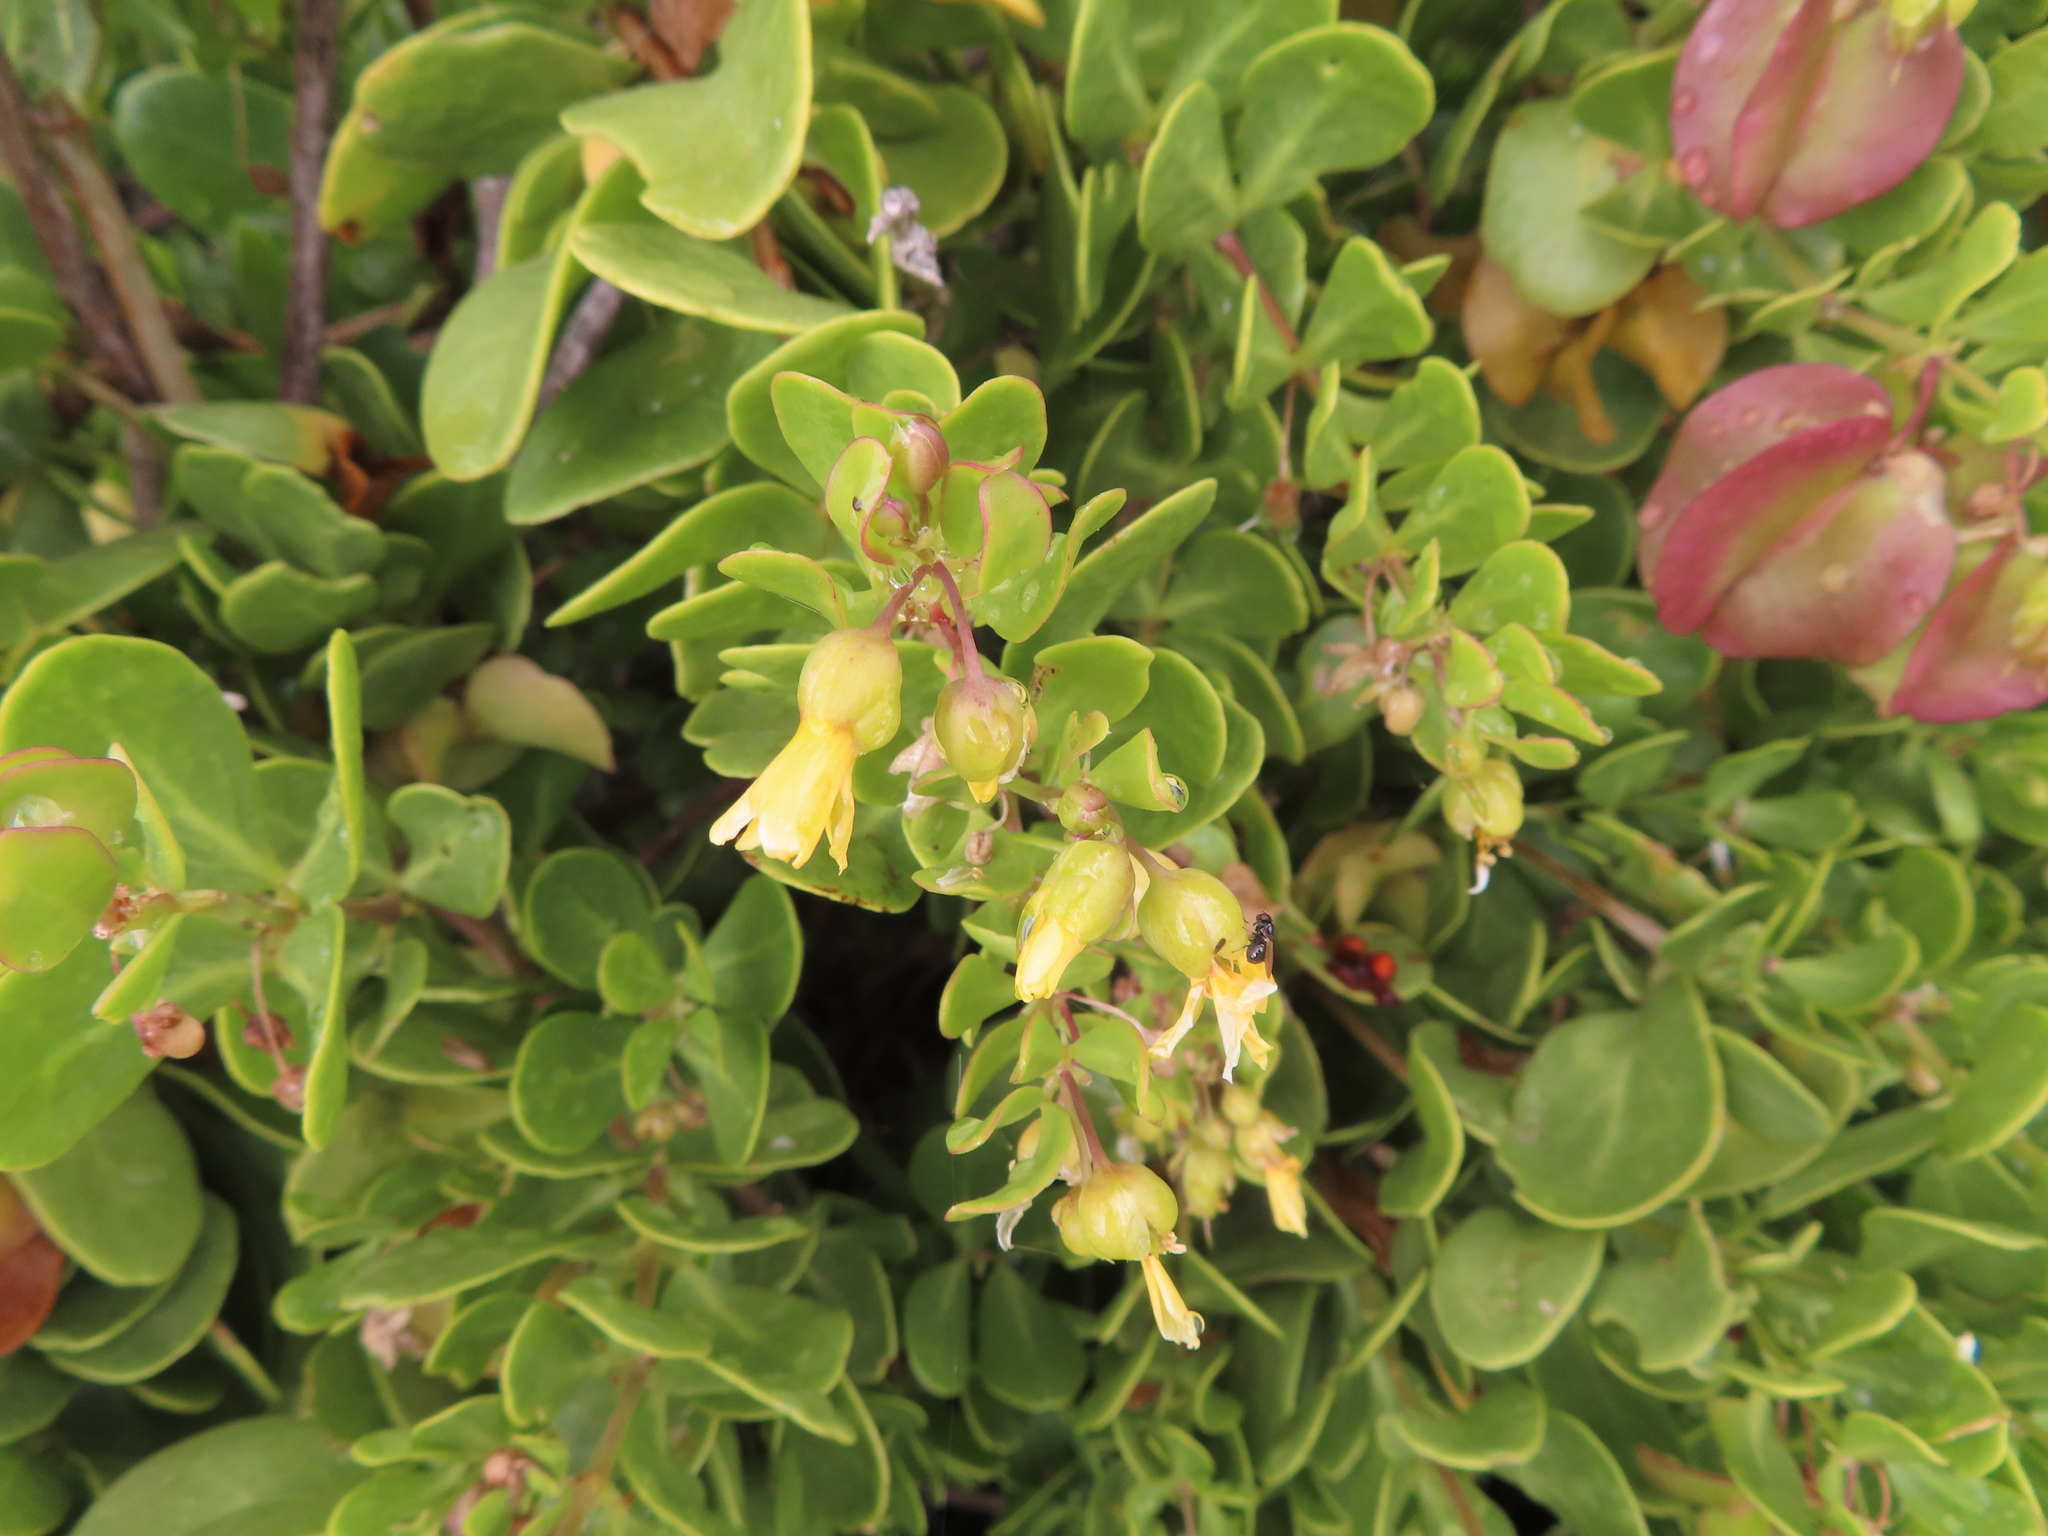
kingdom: Plantae
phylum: Tracheophyta
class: Magnoliopsida
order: Zygophyllales
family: Zygophyllaceae
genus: Roepera
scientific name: Roepera morgsana
